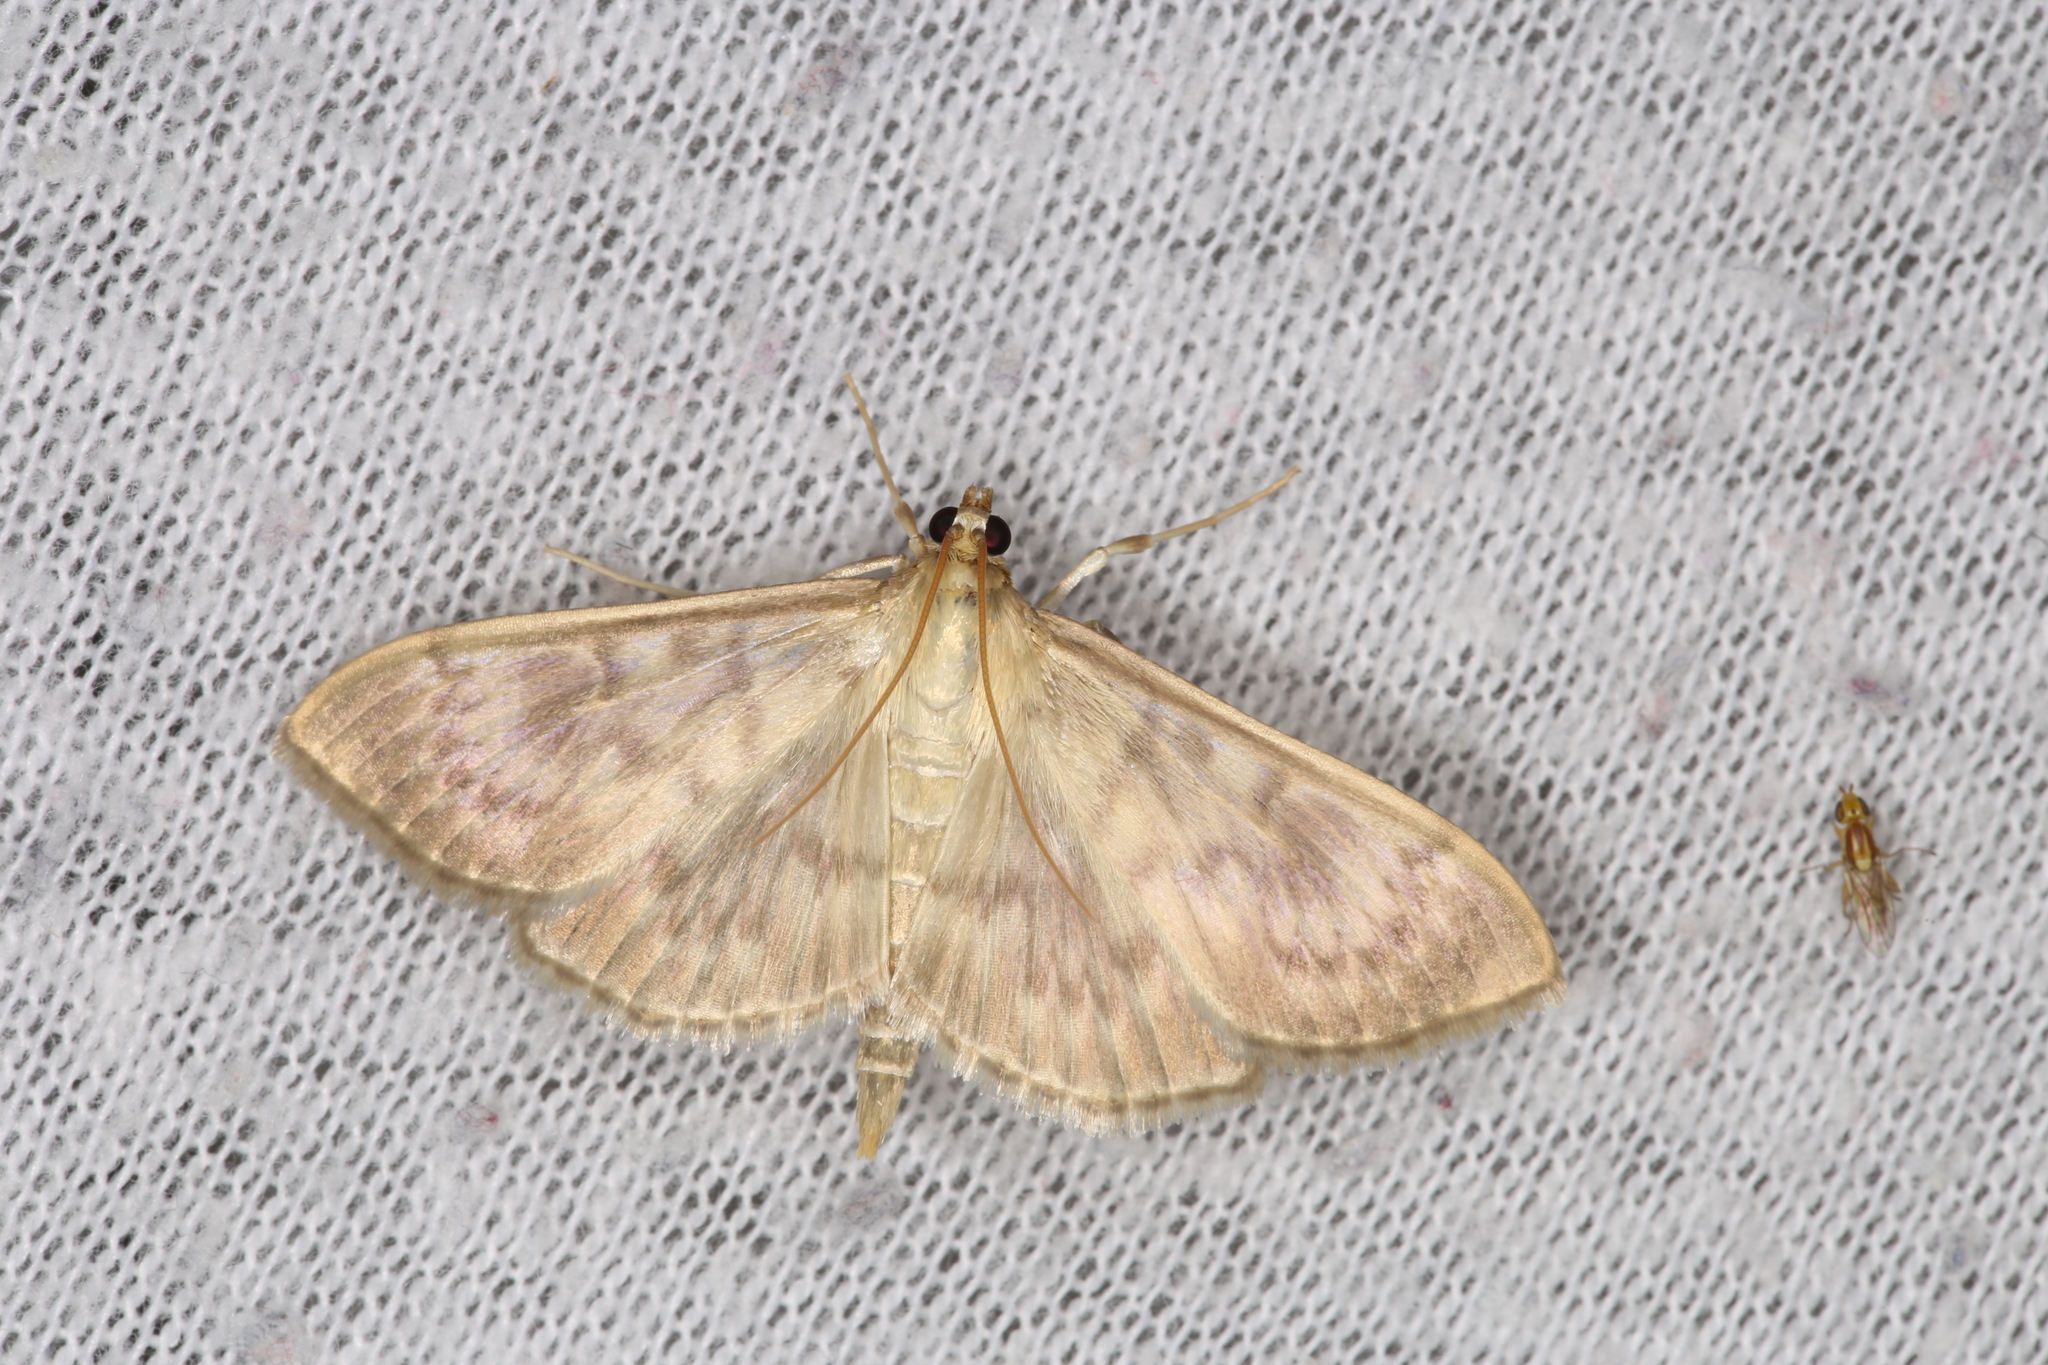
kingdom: Animalia
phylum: Arthropoda
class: Insecta
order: Lepidoptera
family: Crambidae
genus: Patania
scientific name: Patania ruralis
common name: Mother of pearl
